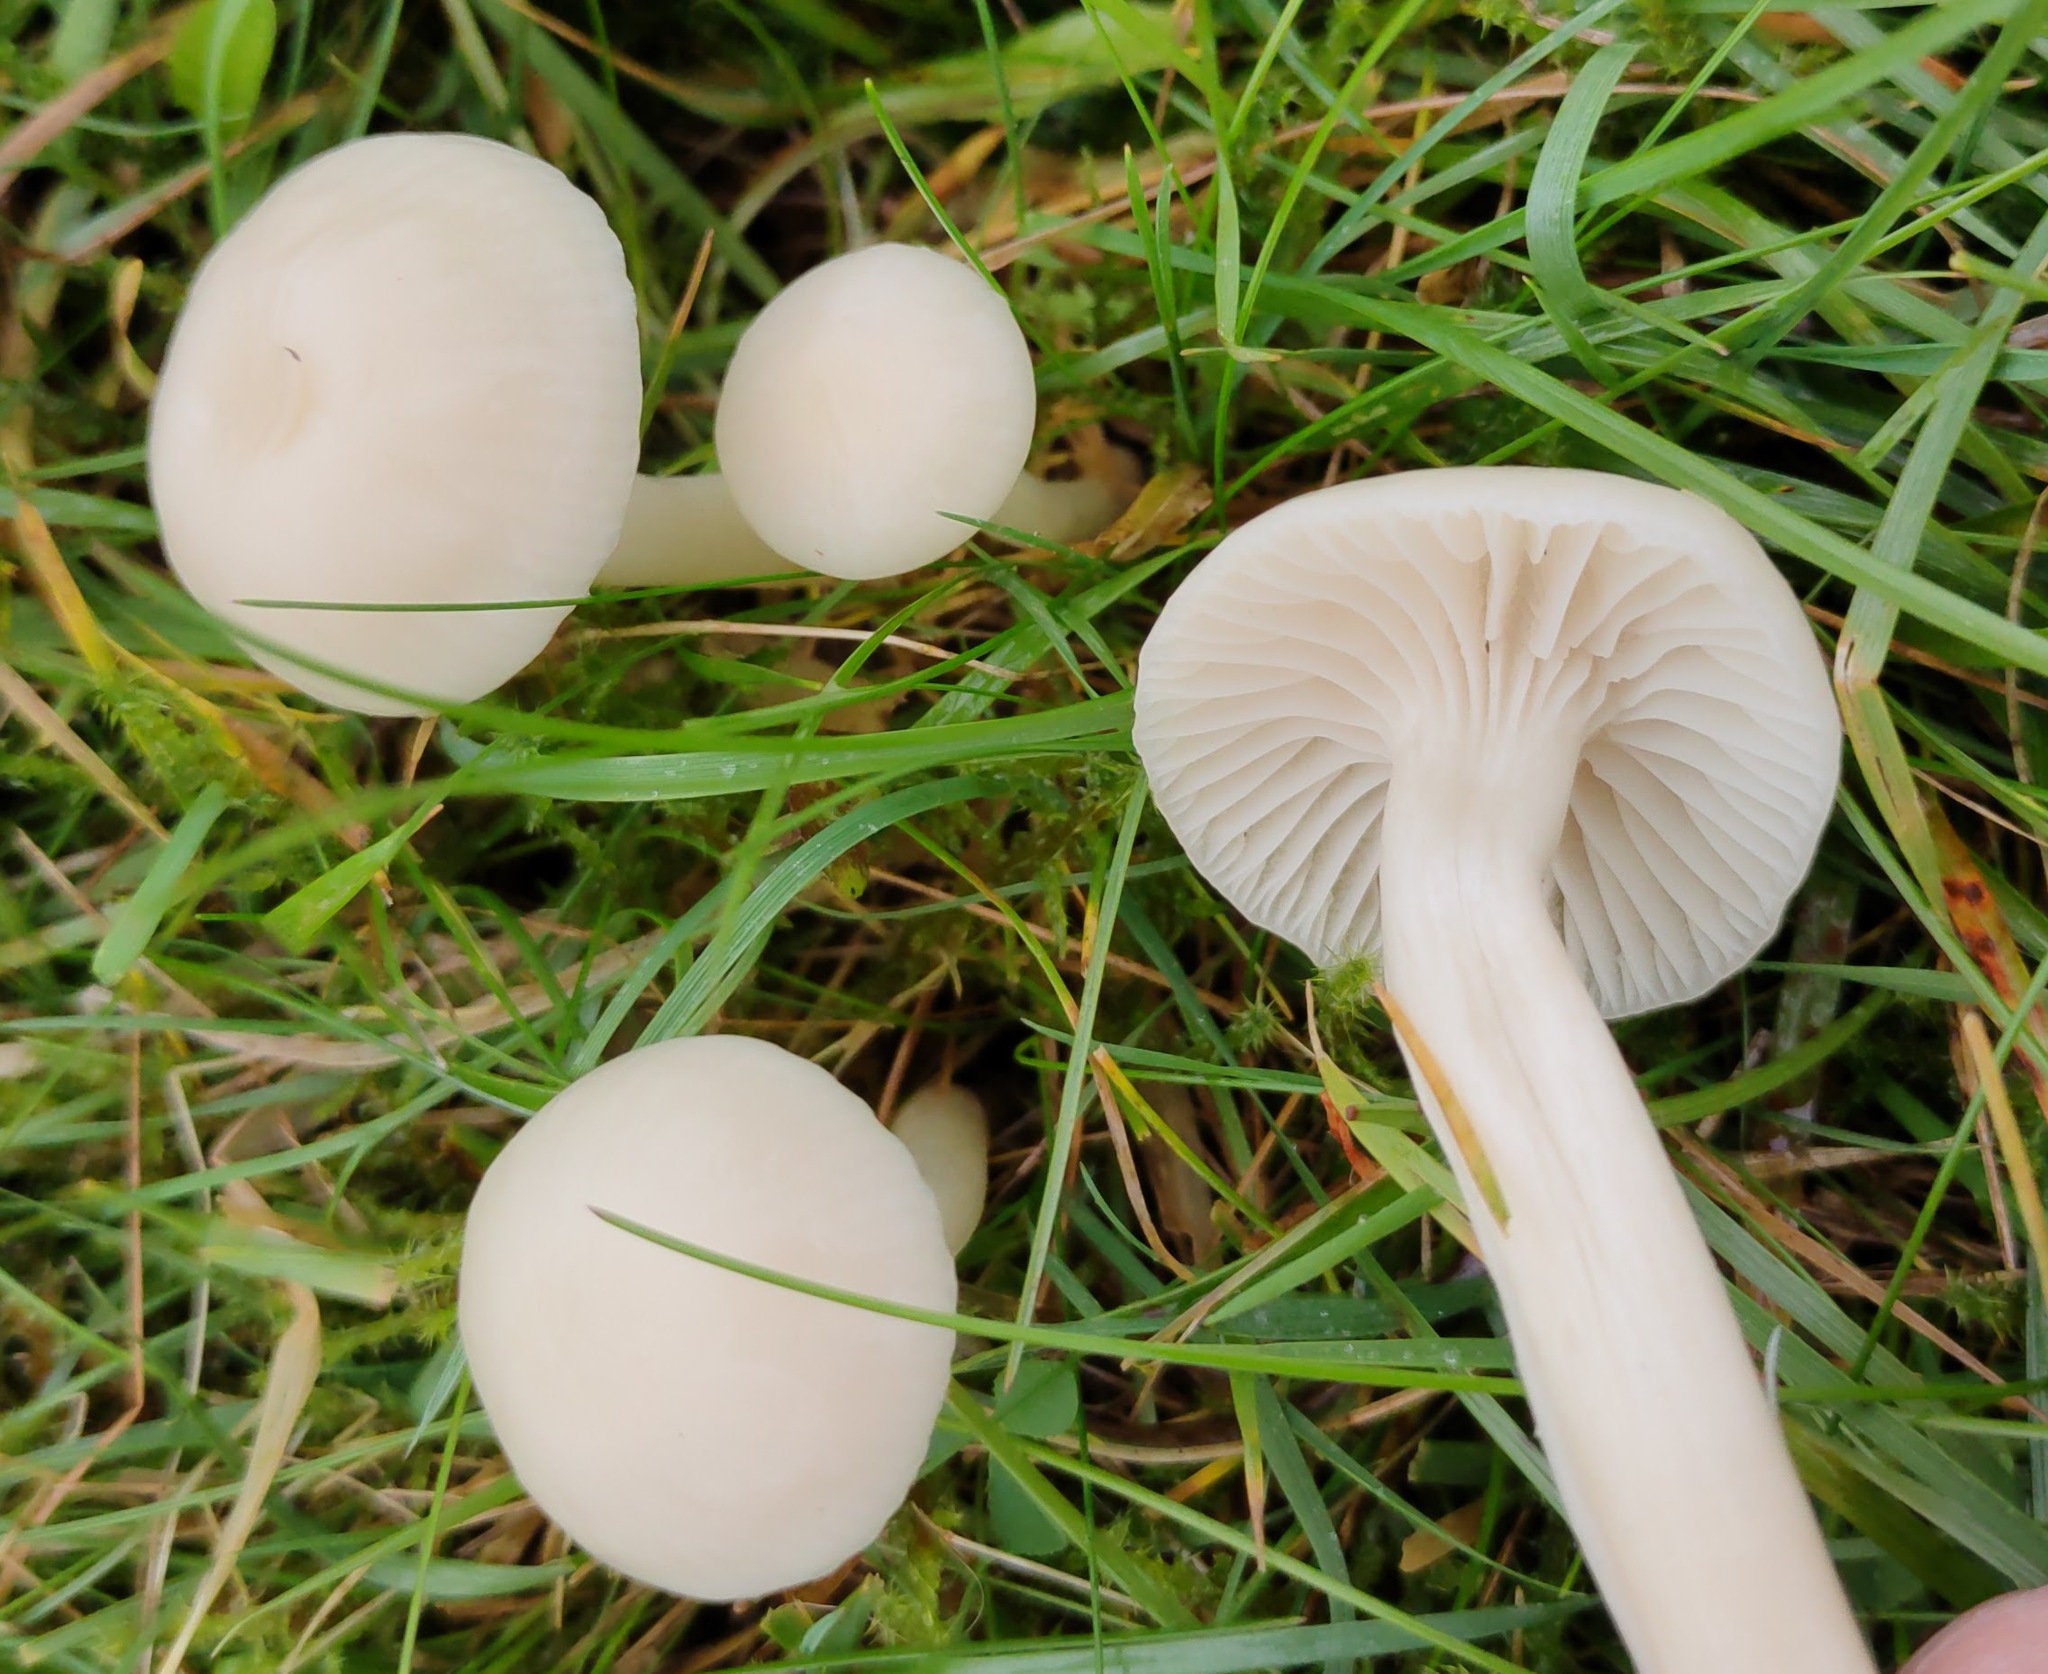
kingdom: Fungi
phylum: Basidiomycota
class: Agaricomycetes
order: Agaricales
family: Hygrophoraceae
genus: Cuphophyllus
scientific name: Cuphophyllus virgineus
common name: Snowy waxcap
